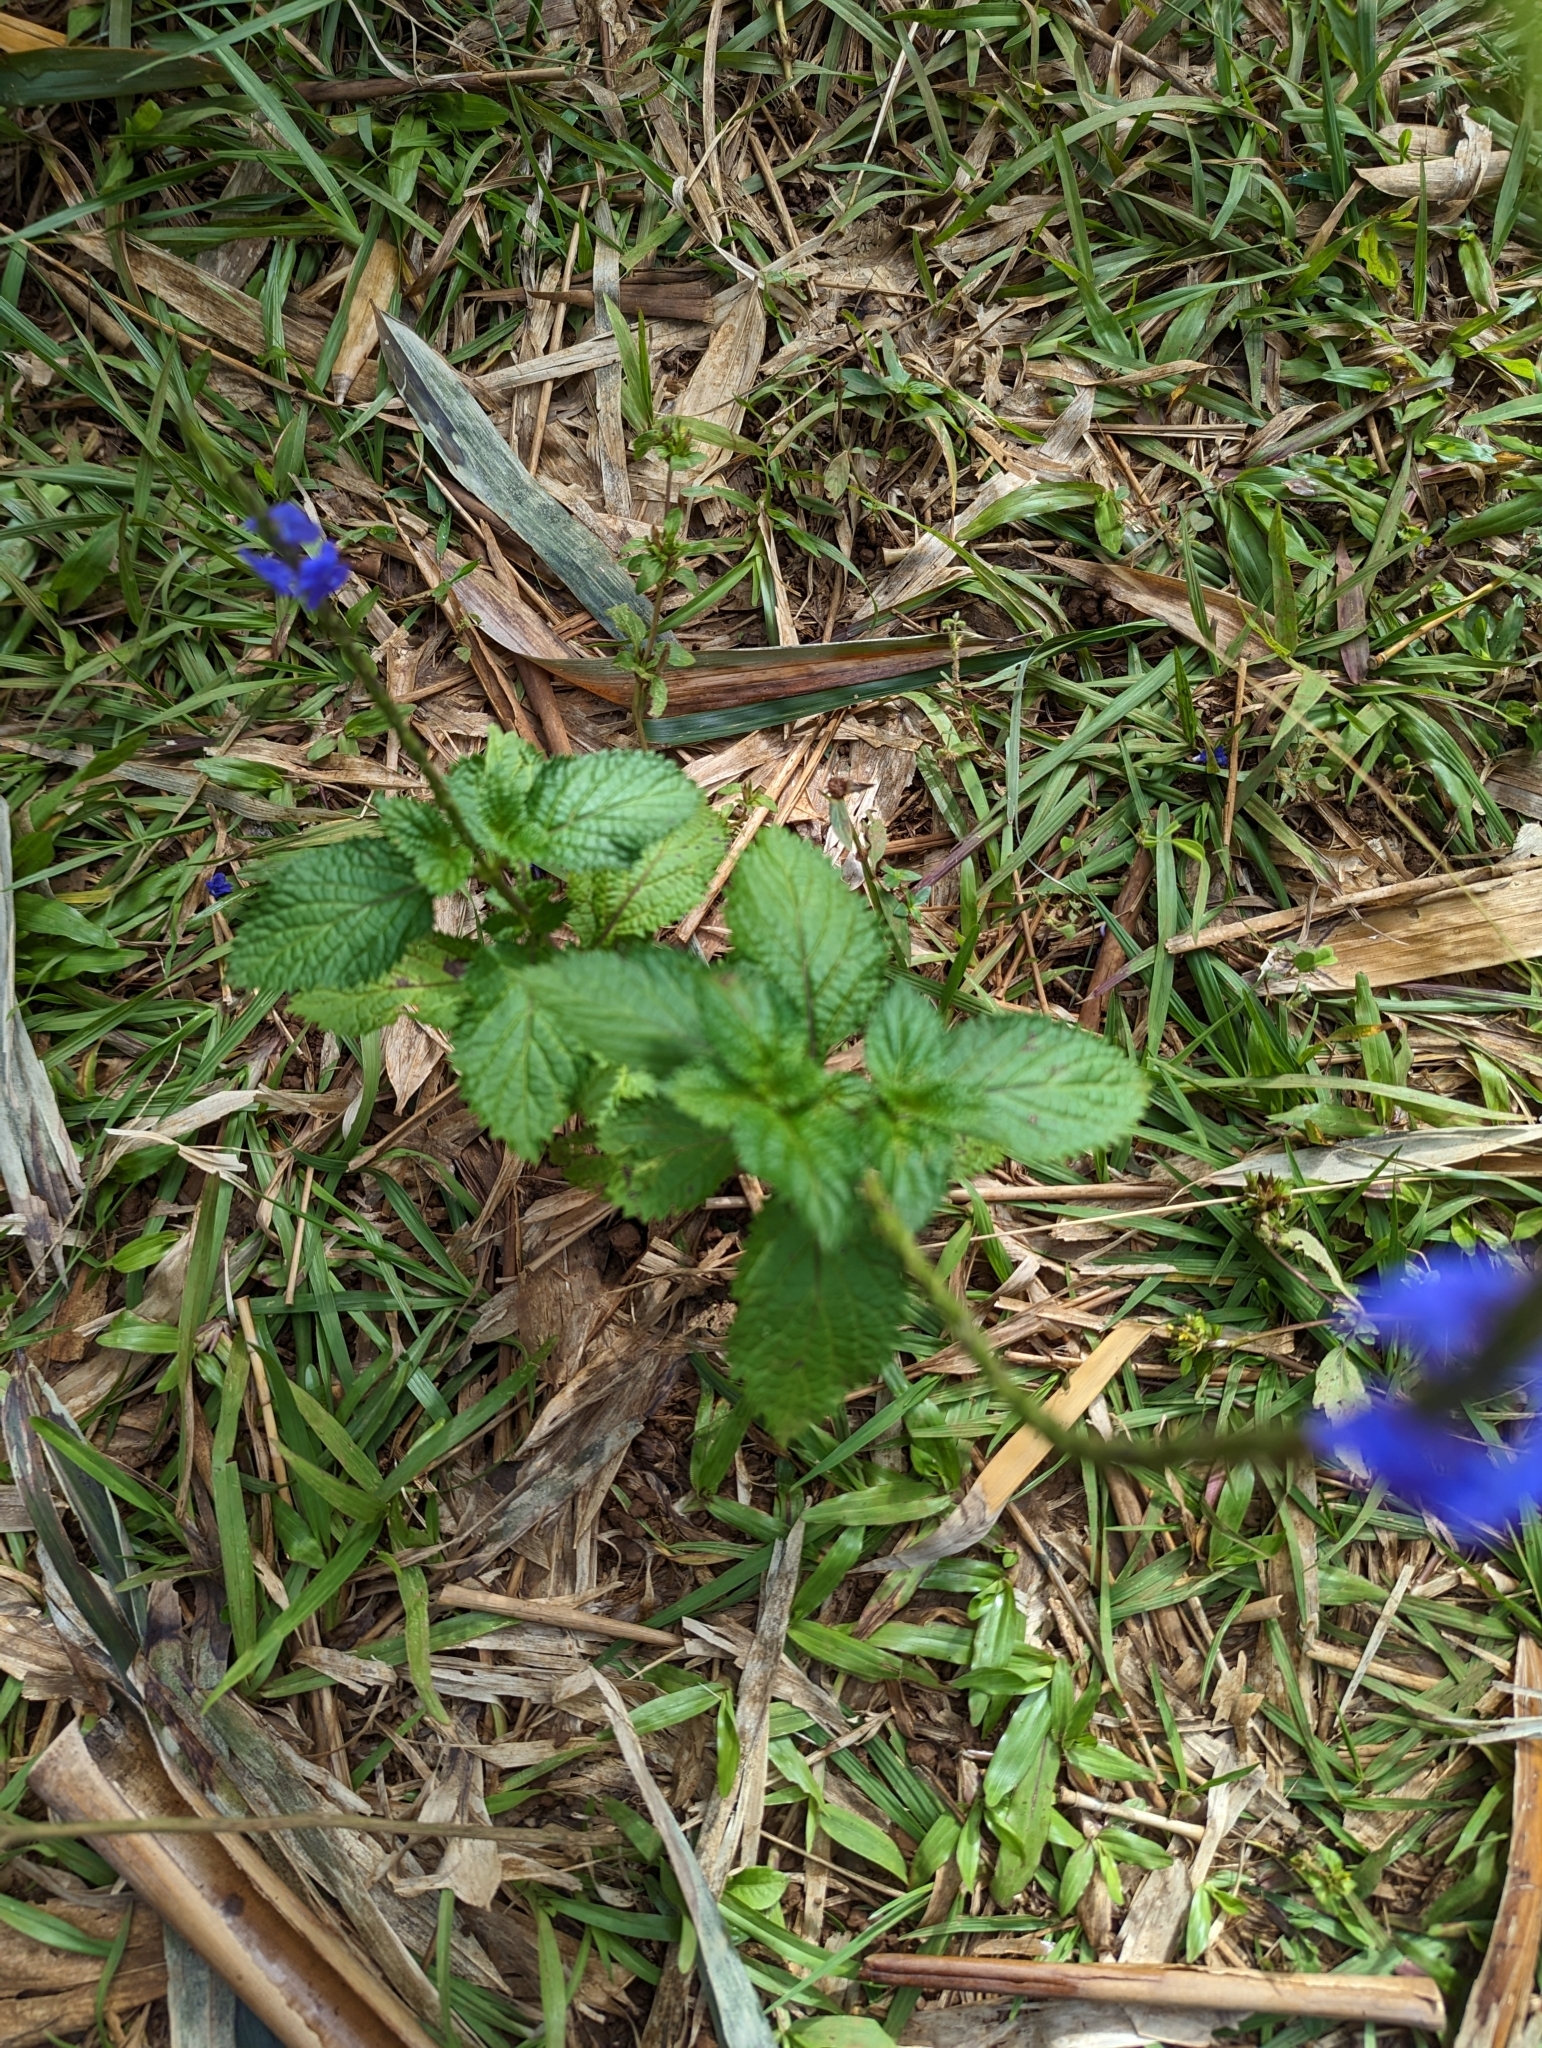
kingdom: Plantae
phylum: Tracheophyta
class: Magnoliopsida
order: Lamiales
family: Verbenaceae
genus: Stachytarpheta
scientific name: Stachytarpheta cayennensis
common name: Cayenne porterweed
